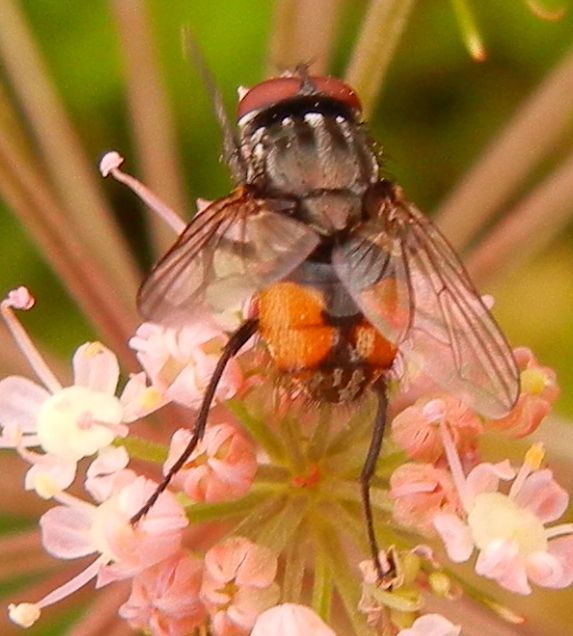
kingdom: Animalia
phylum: Arthropoda
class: Insecta
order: Diptera
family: Muscidae
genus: Musca
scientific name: Musca autumnalis
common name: Face fly
